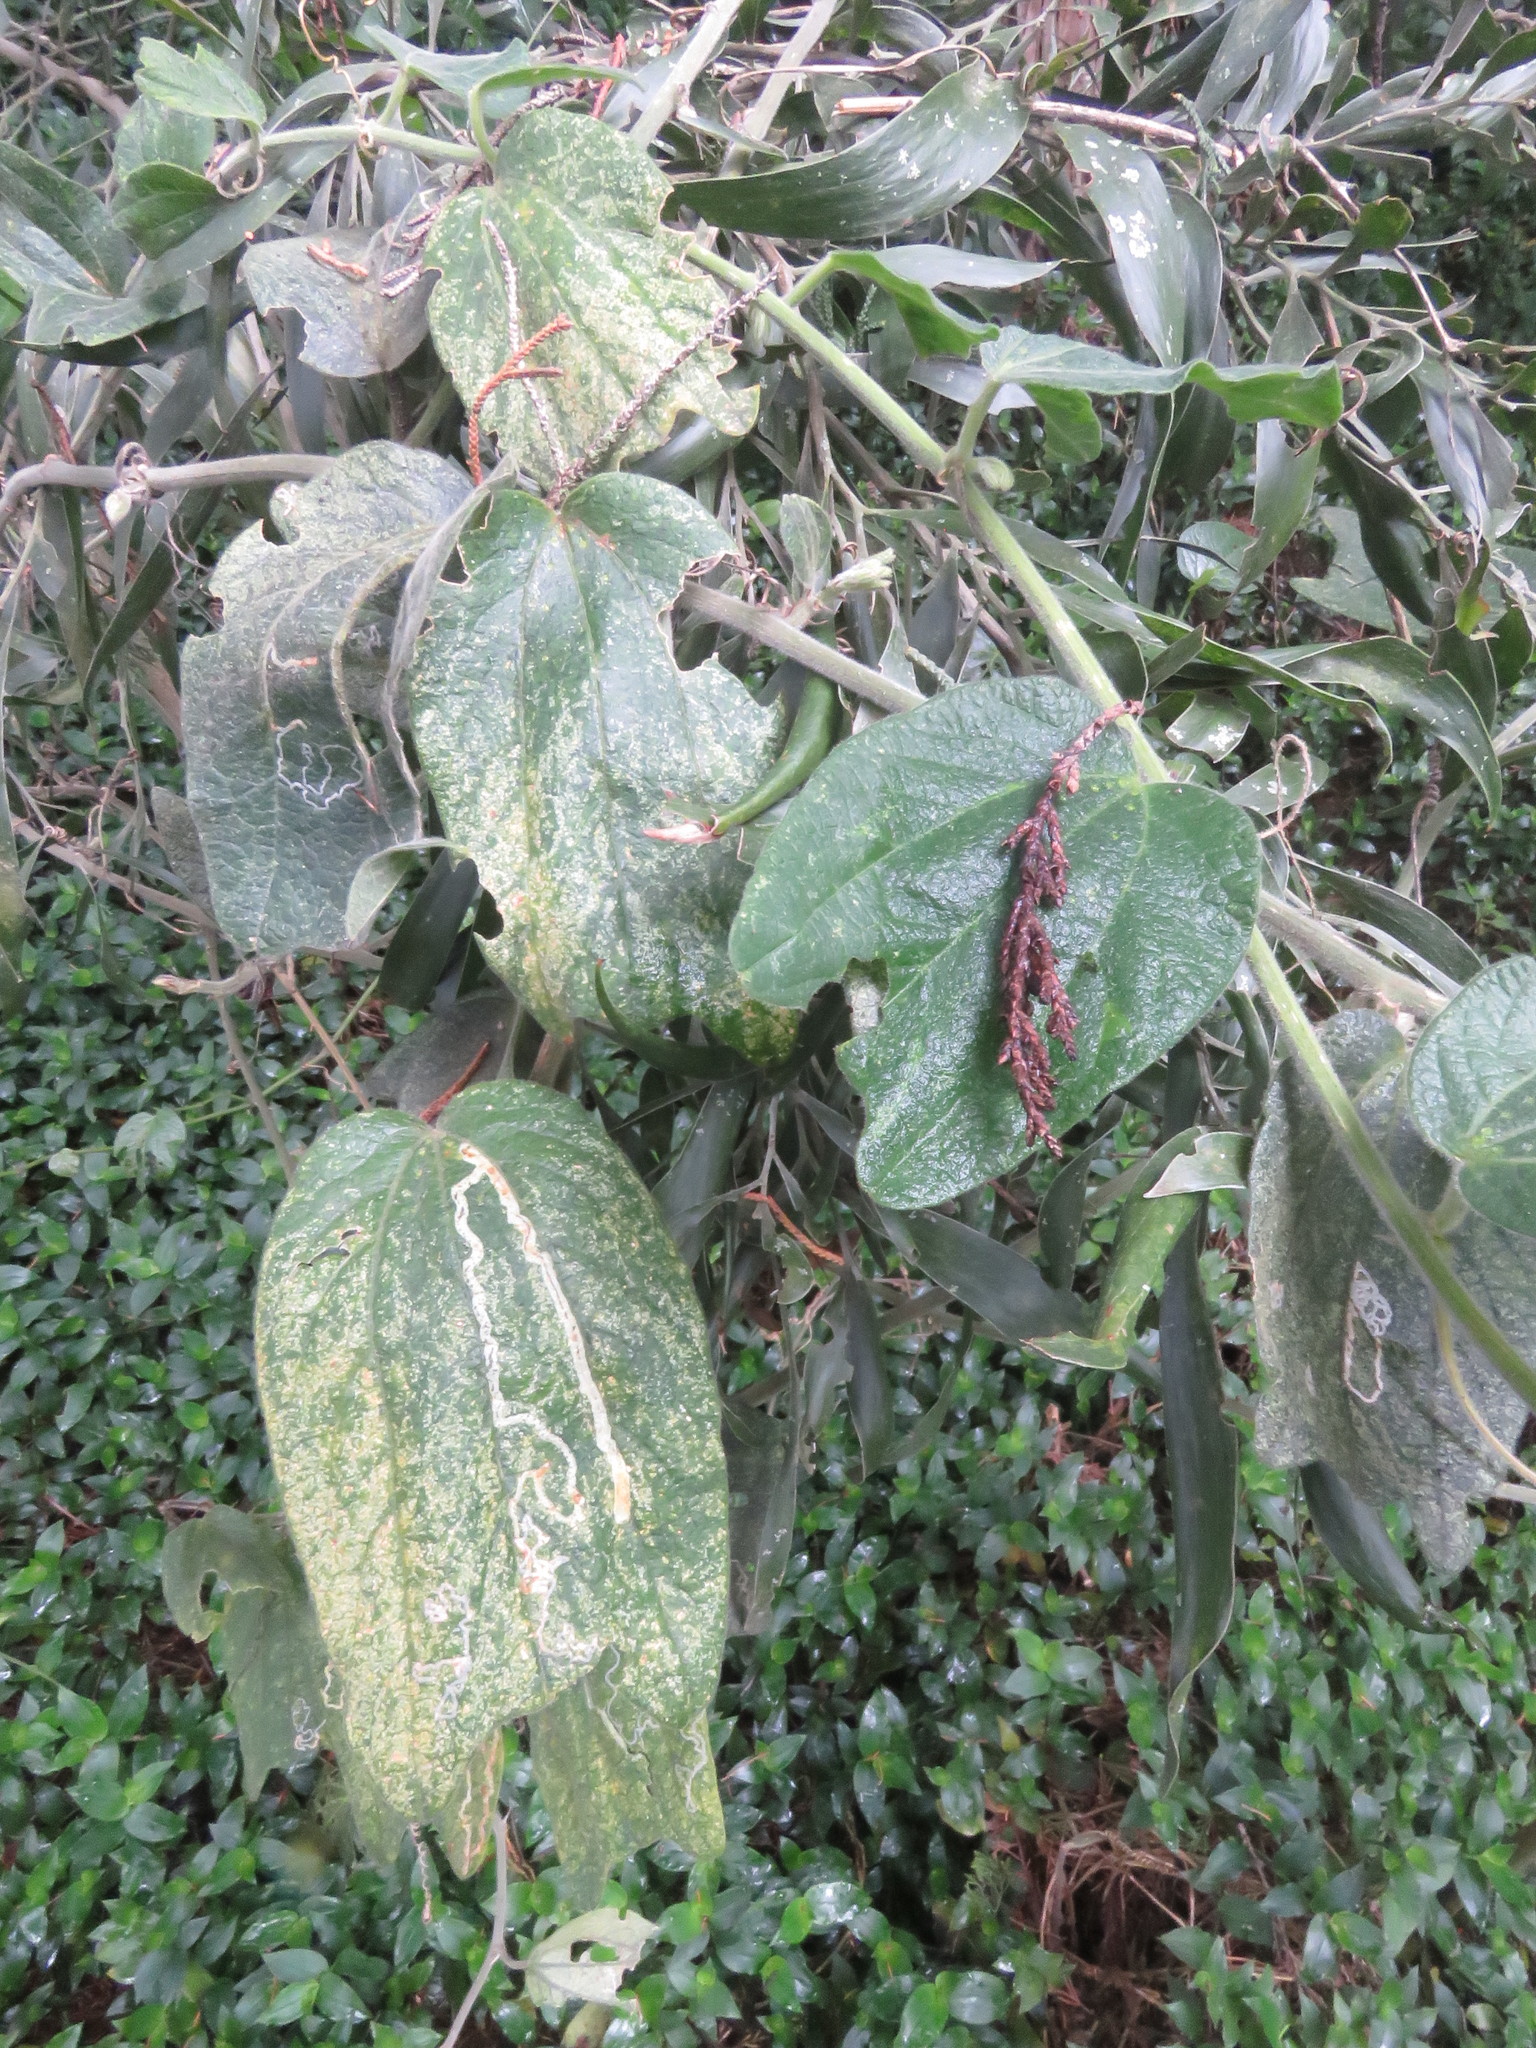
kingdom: Plantae
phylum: Tracheophyta
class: Magnoliopsida
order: Malpighiales
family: Passifloraceae
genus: Passiflora
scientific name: Passiflora bogotensis
